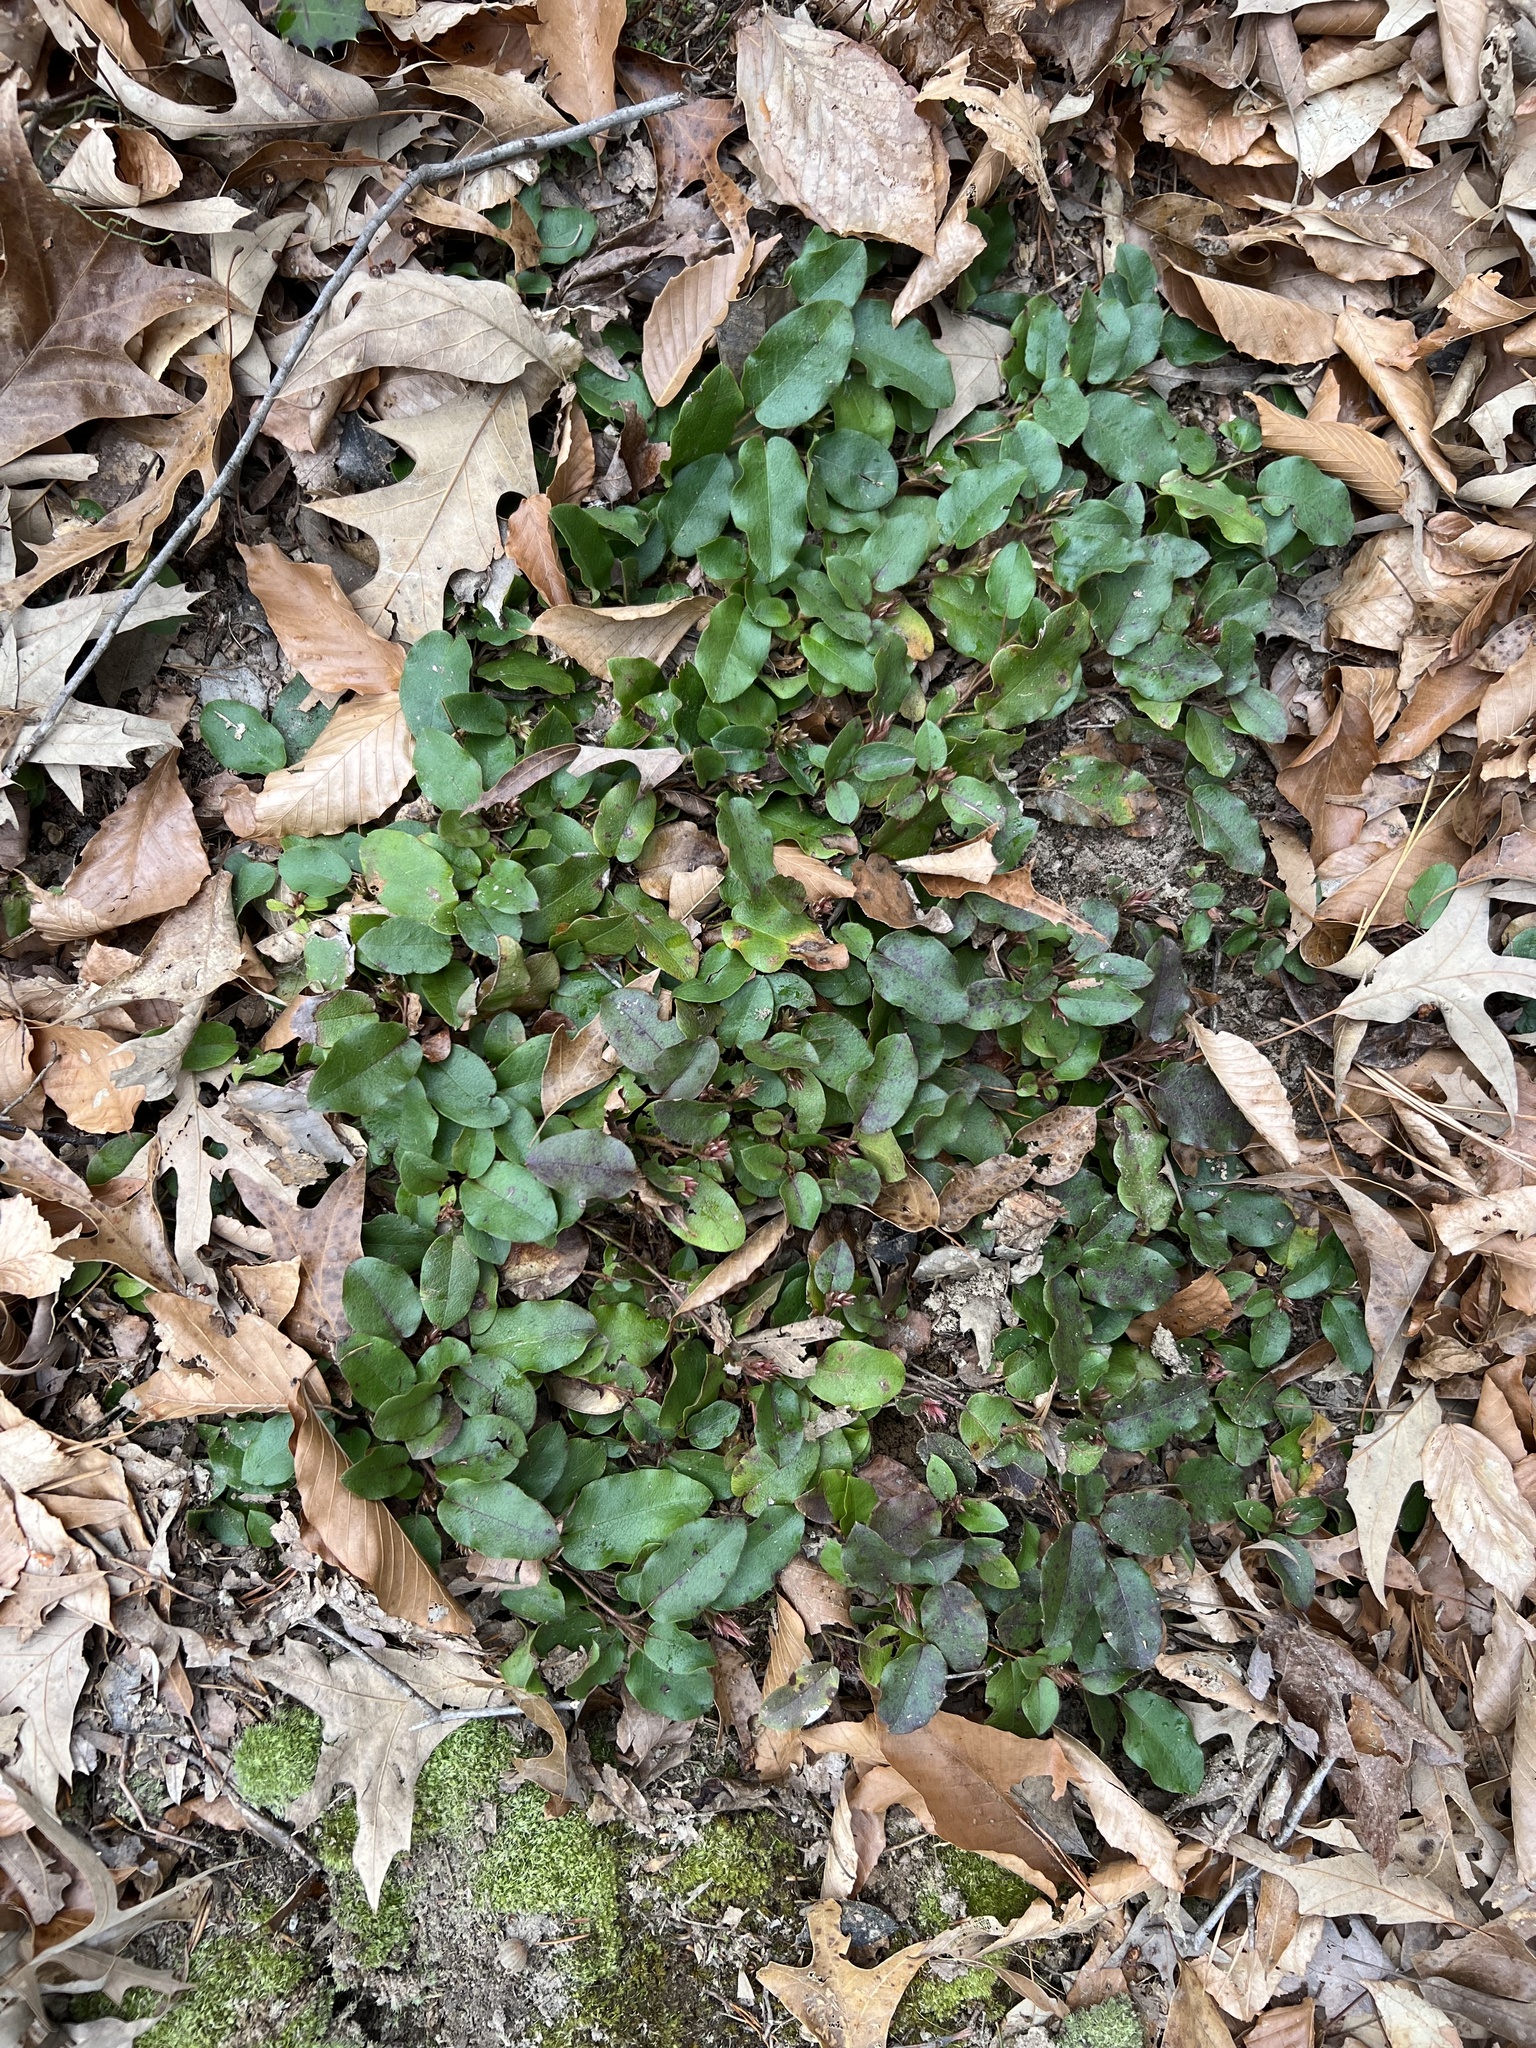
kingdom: Plantae
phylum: Tracheophyta
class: Magnoliopsida
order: Ericales
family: Ericaceae
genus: Epigaea
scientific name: Epigaea repens
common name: Gravelroot
